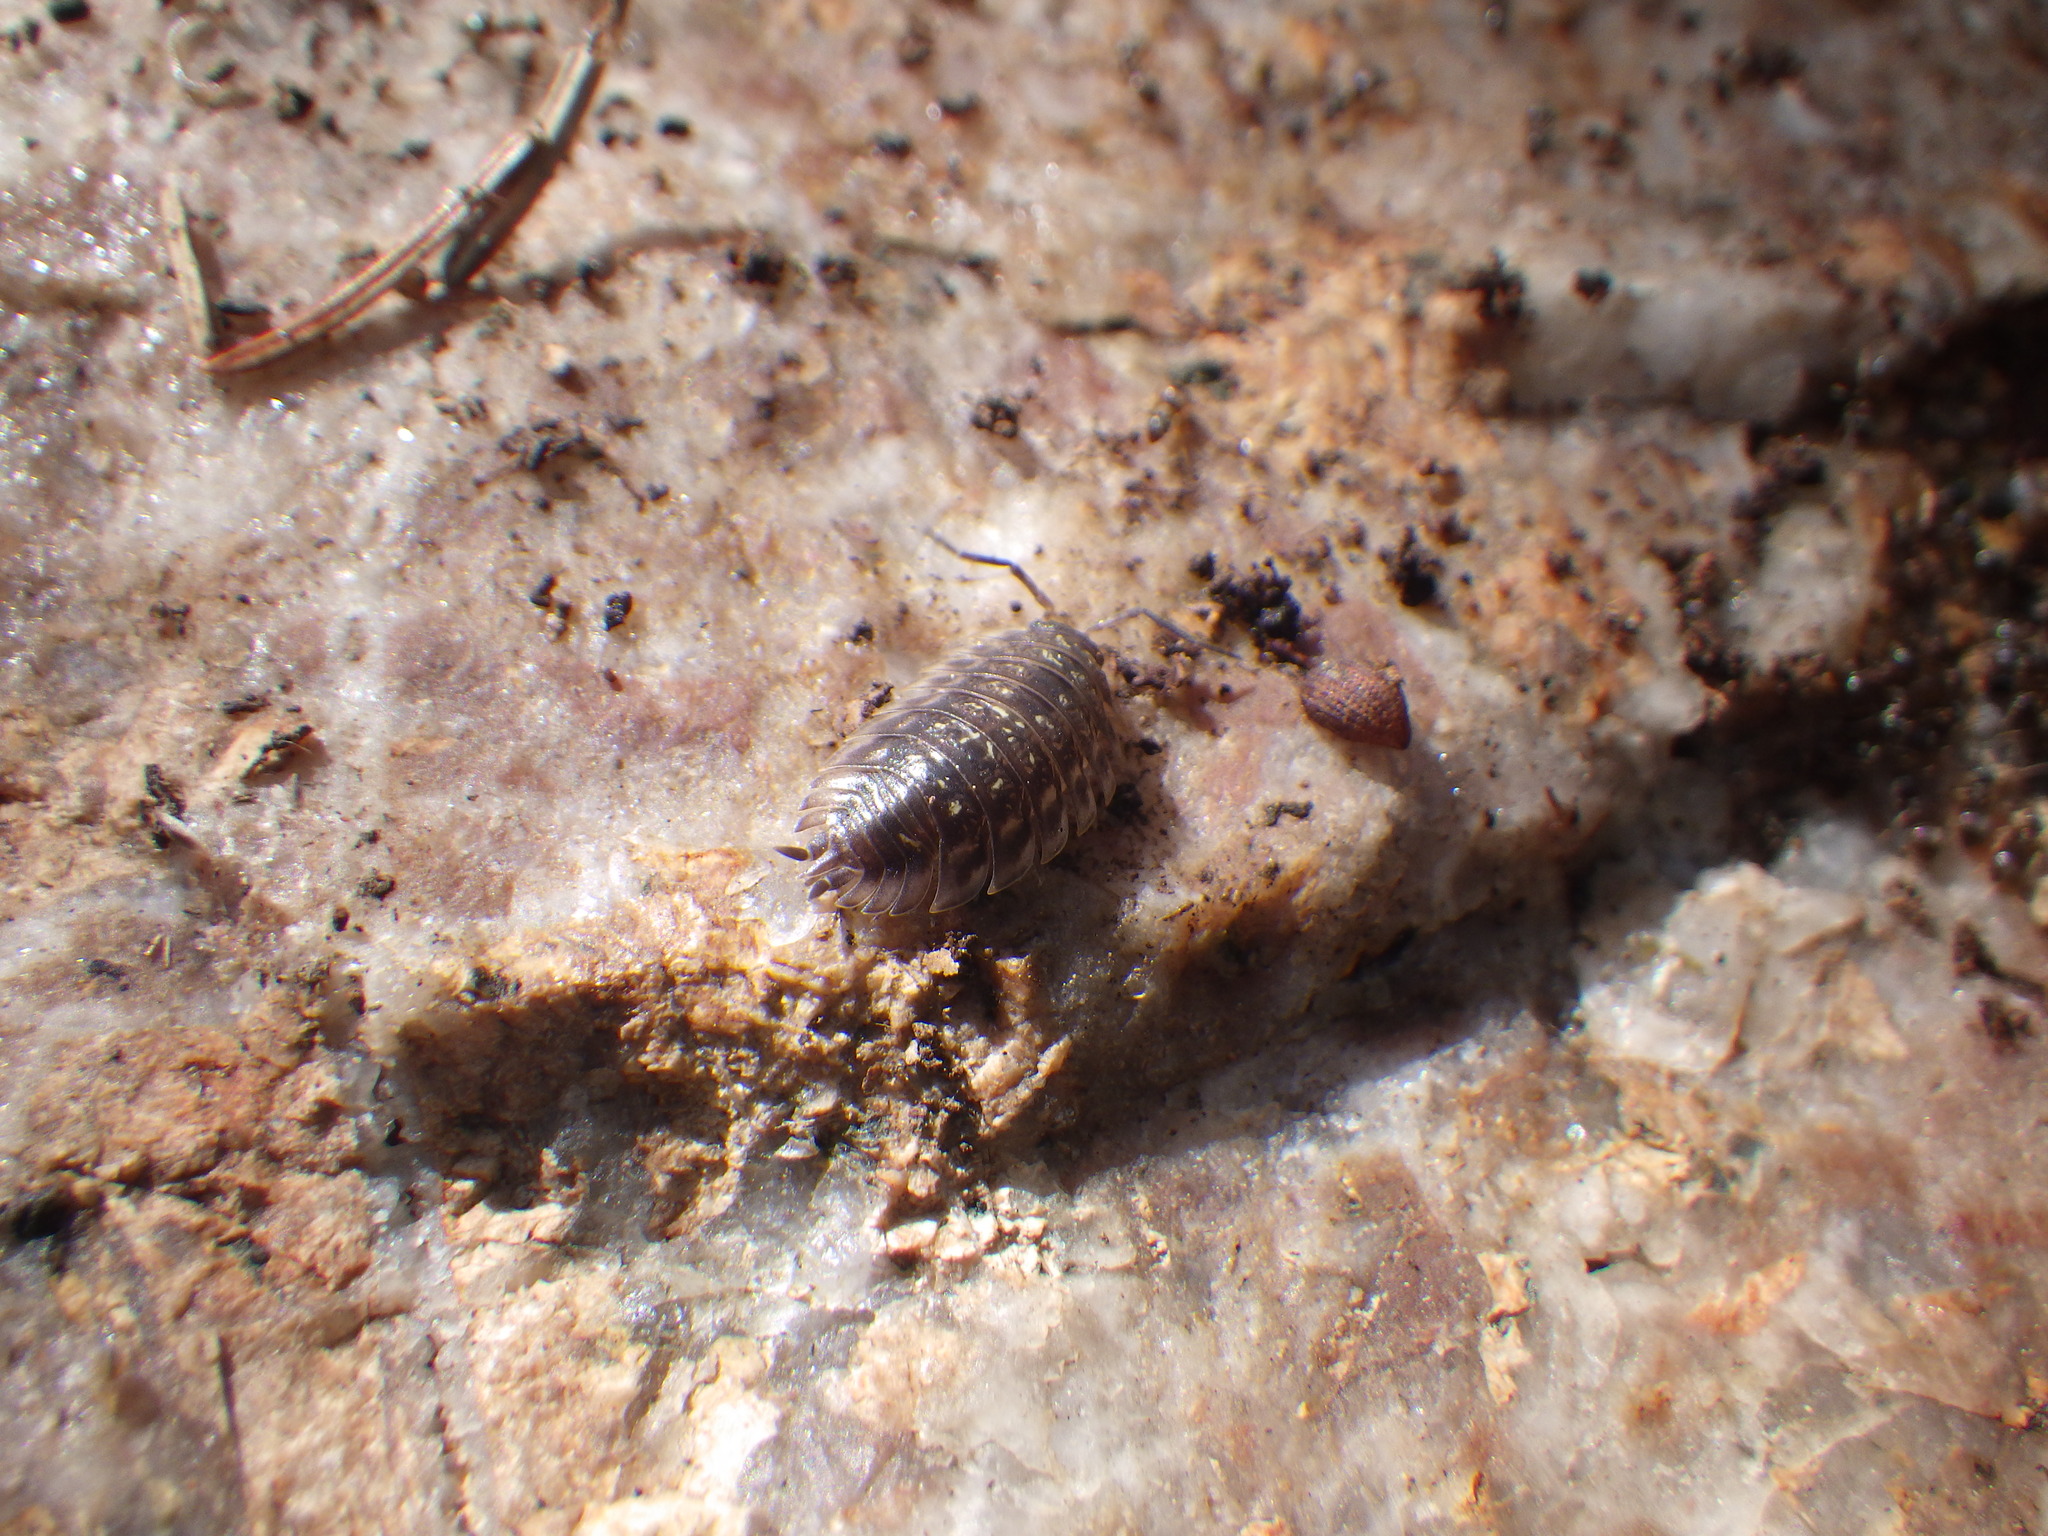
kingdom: Animalia
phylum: Arthropoda
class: Malacostraca
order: Isopoda
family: Oniscidae
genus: Oniscus
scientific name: Oniscus asellus
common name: Common shiny woodlouse
